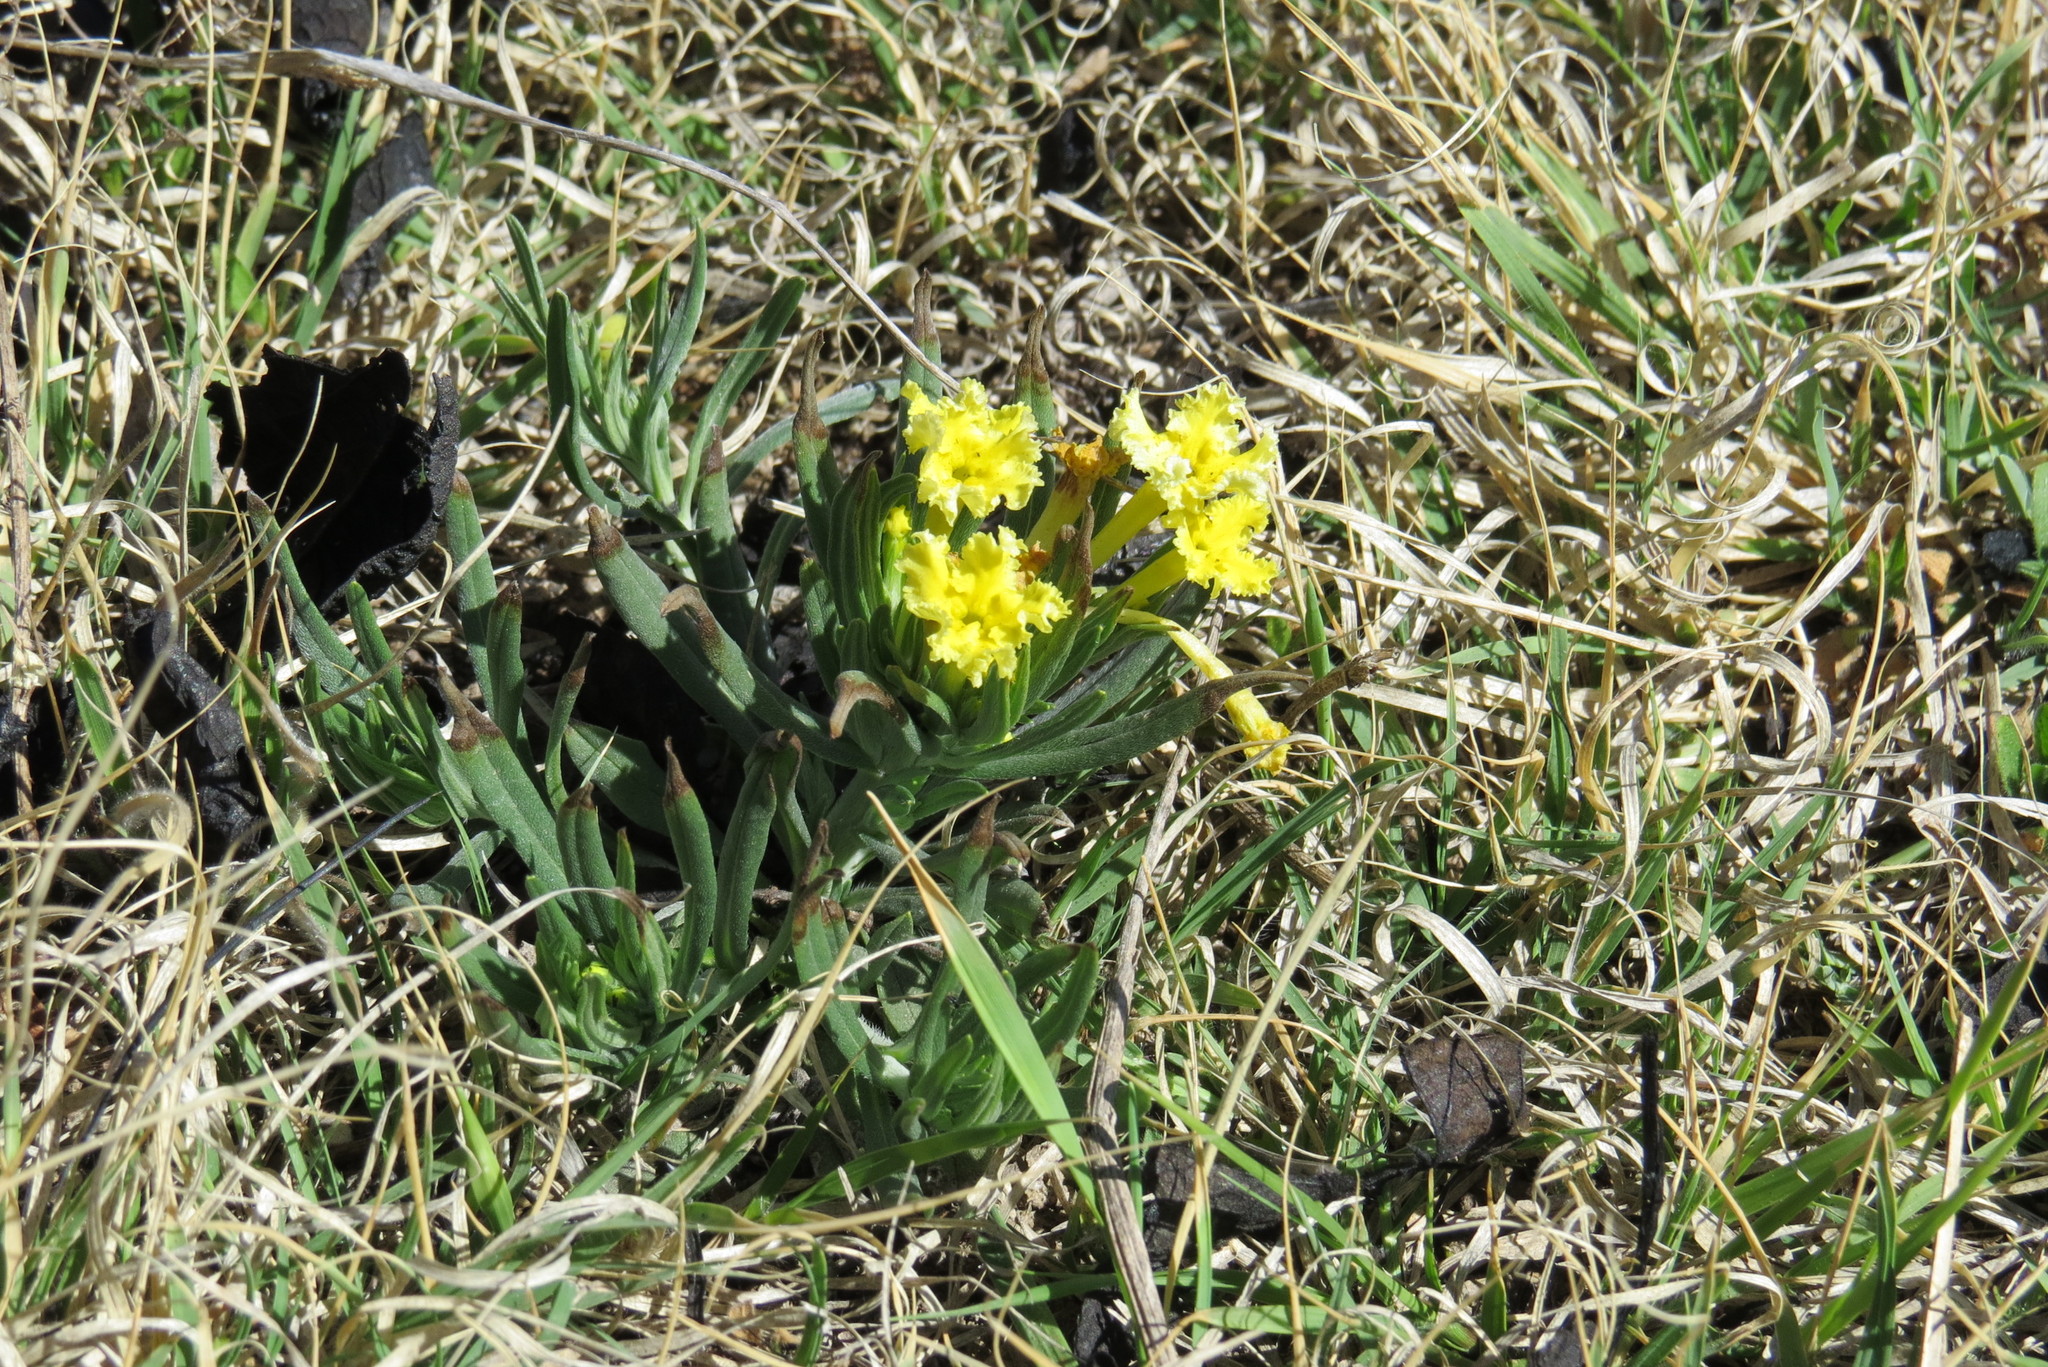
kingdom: Plantae
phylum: Tracheophyta
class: Magnoliopsida
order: Boraginales
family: Boraginaceae
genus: Lithospermum
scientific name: Lithospermum incisum
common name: Fringed gromwell
